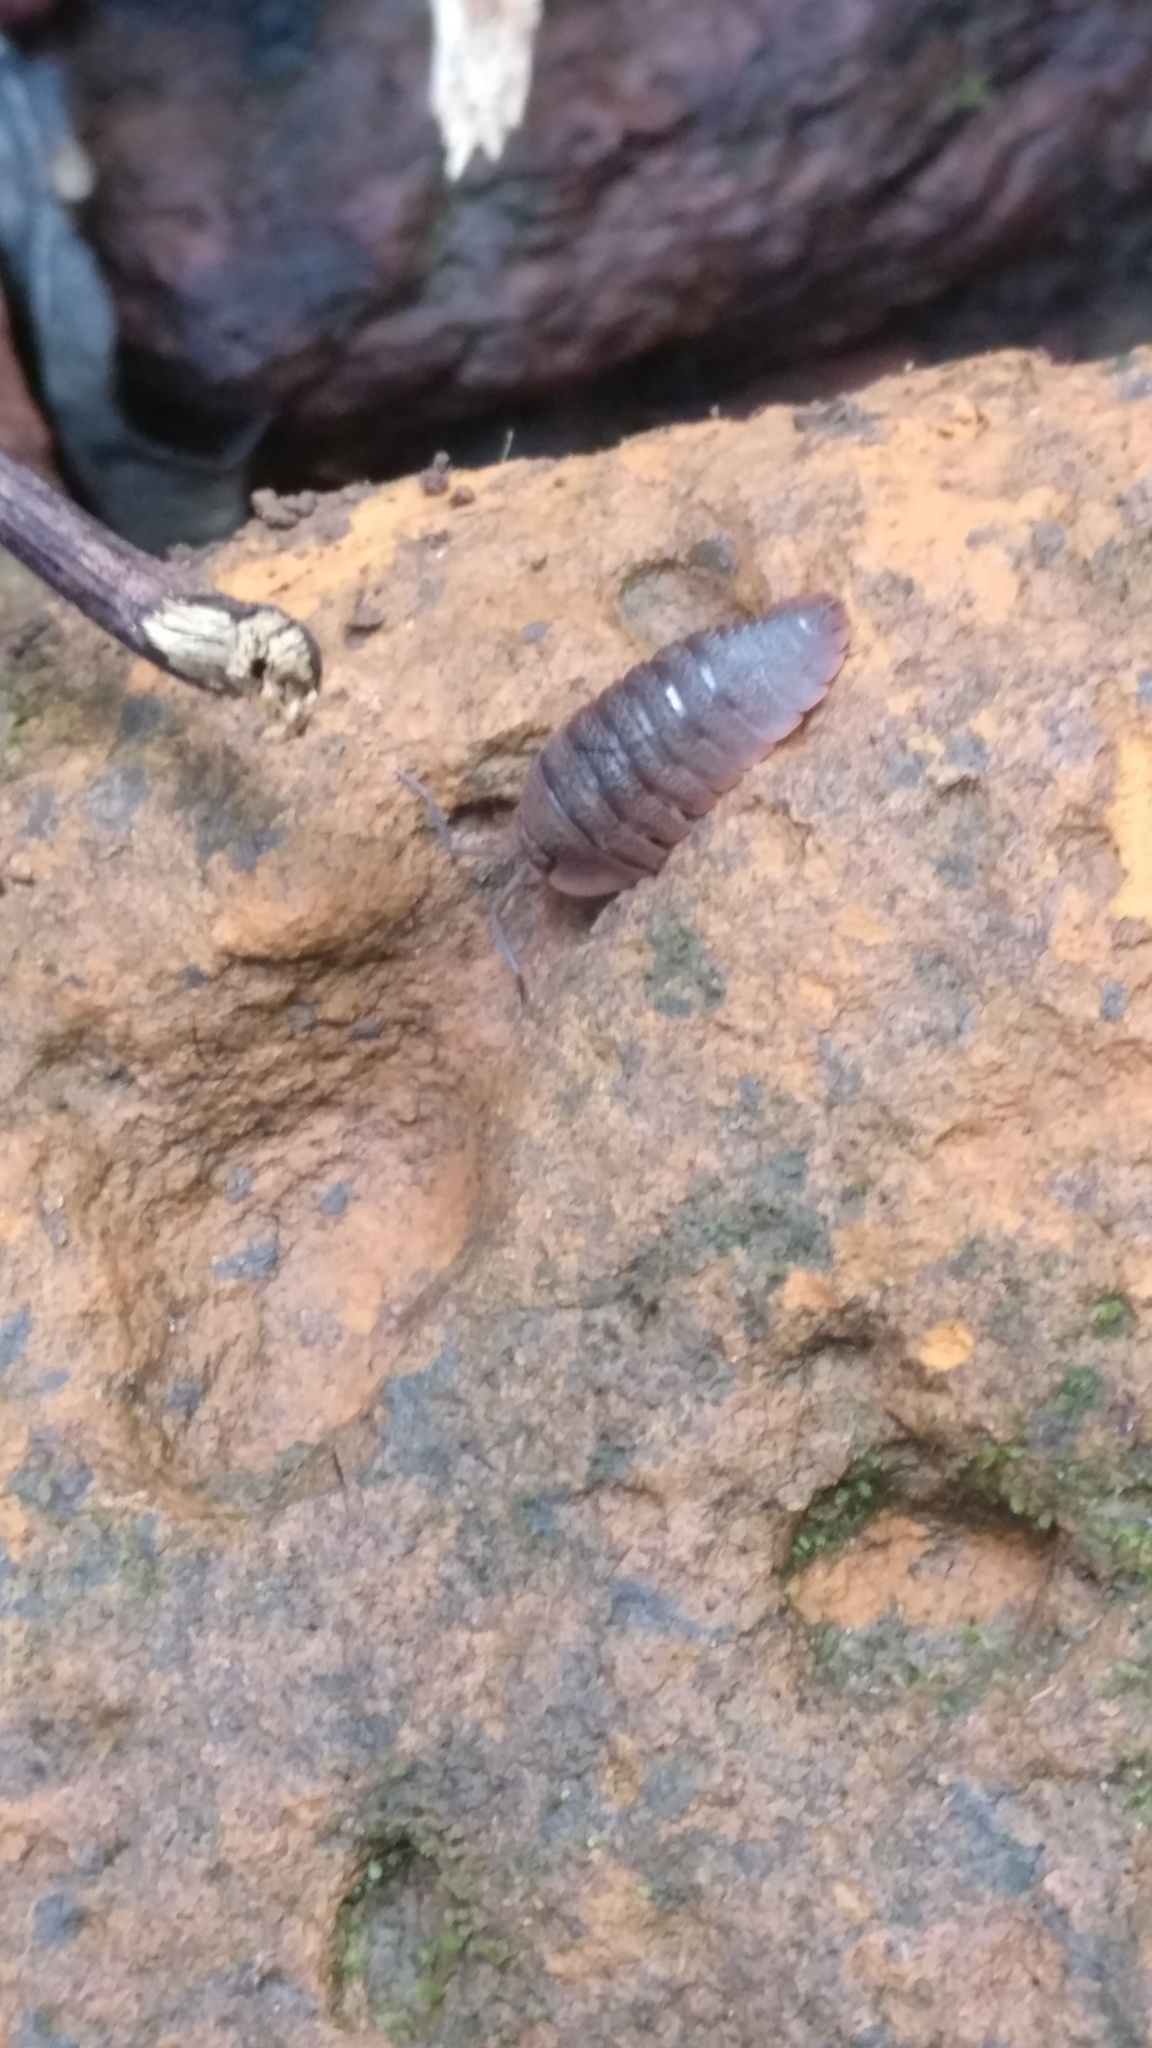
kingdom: Animalia
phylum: Arthropoda
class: Malacostraca
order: Isopoda
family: Scleropactidae
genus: Adinda
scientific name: Adinda
